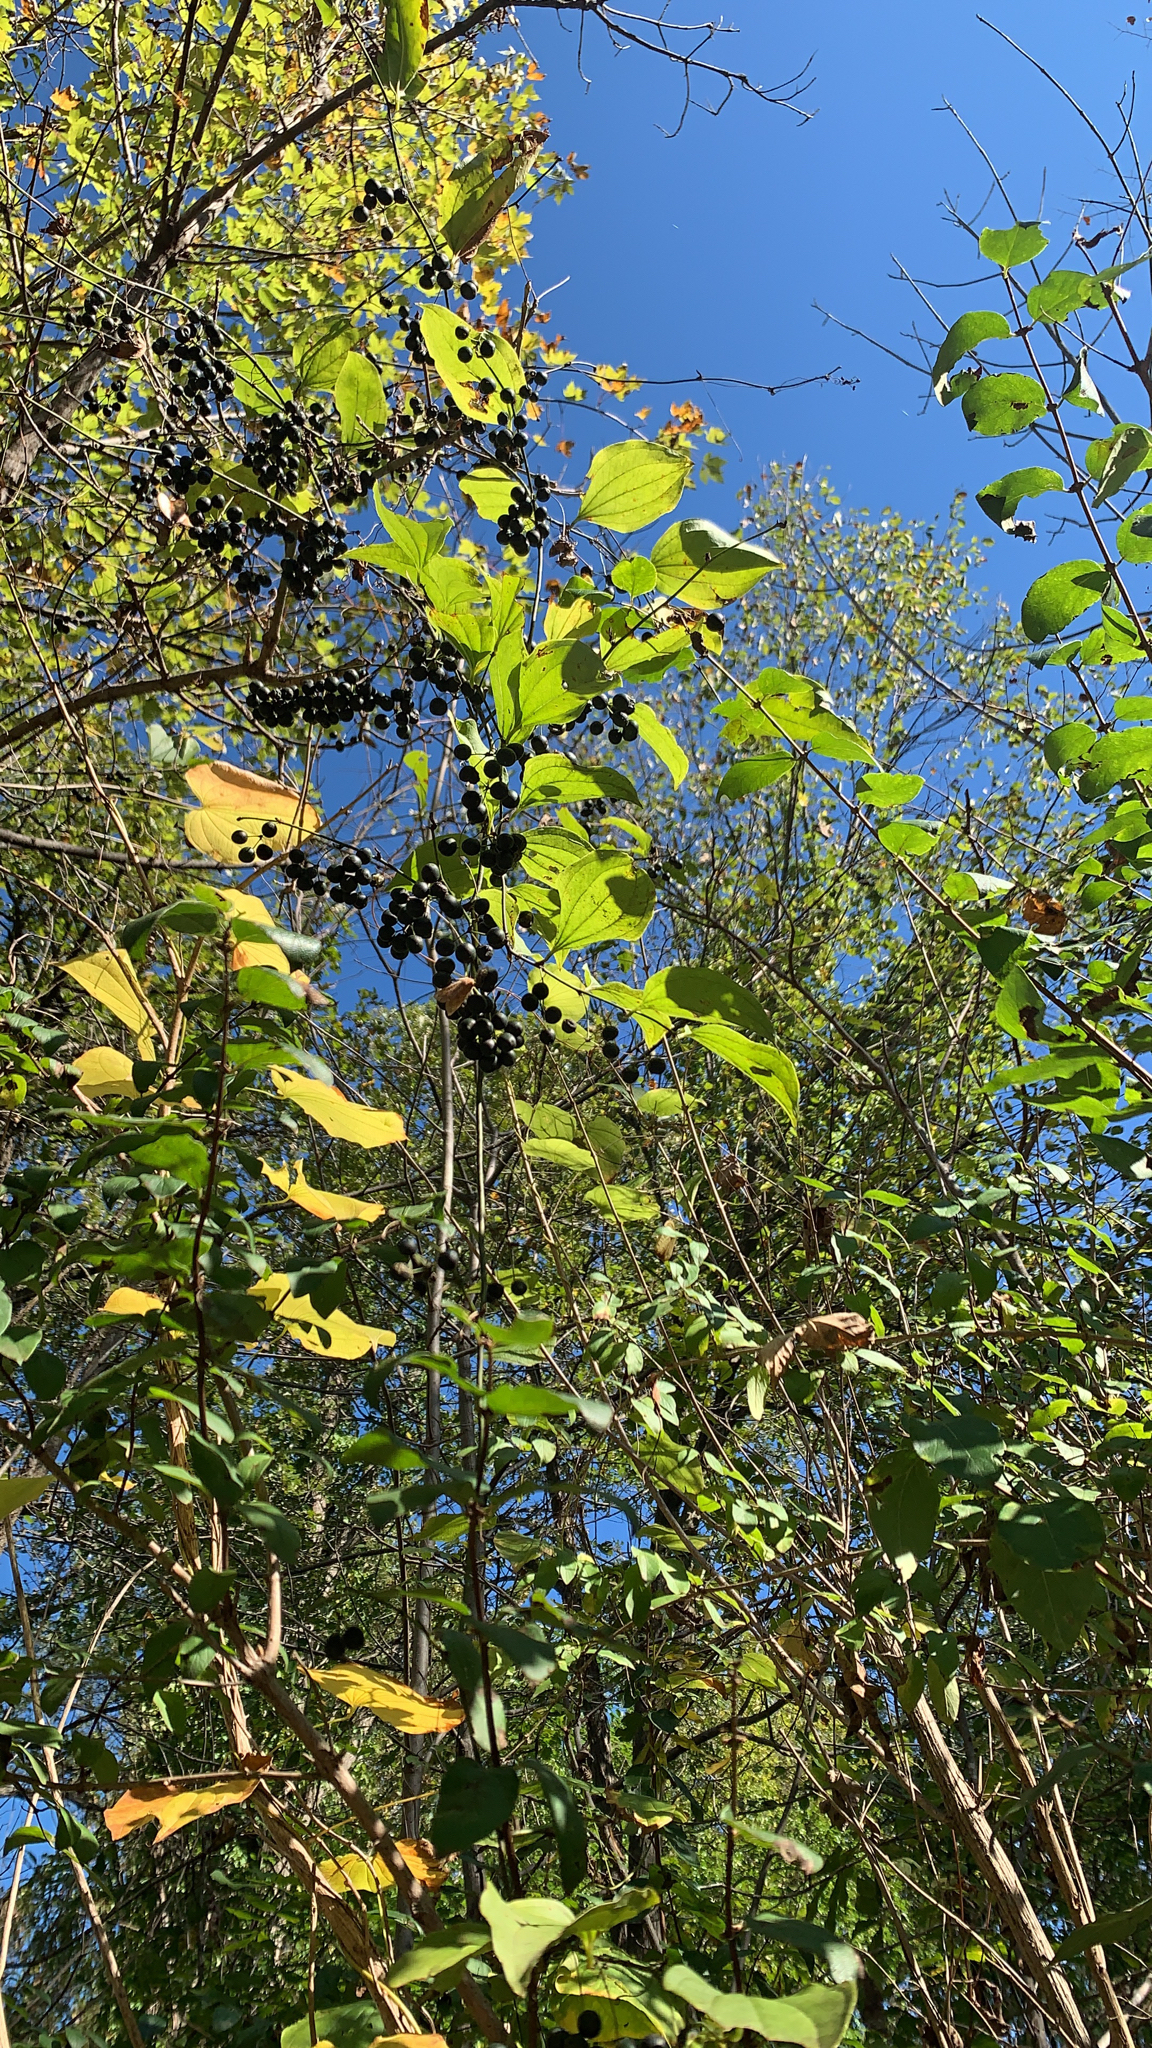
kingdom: Plantae
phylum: Tracheophyta
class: Liliopsida
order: Liliales
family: Smilacaceae
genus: Smilax
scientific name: Smilax tamnoides
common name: Hellfetter
